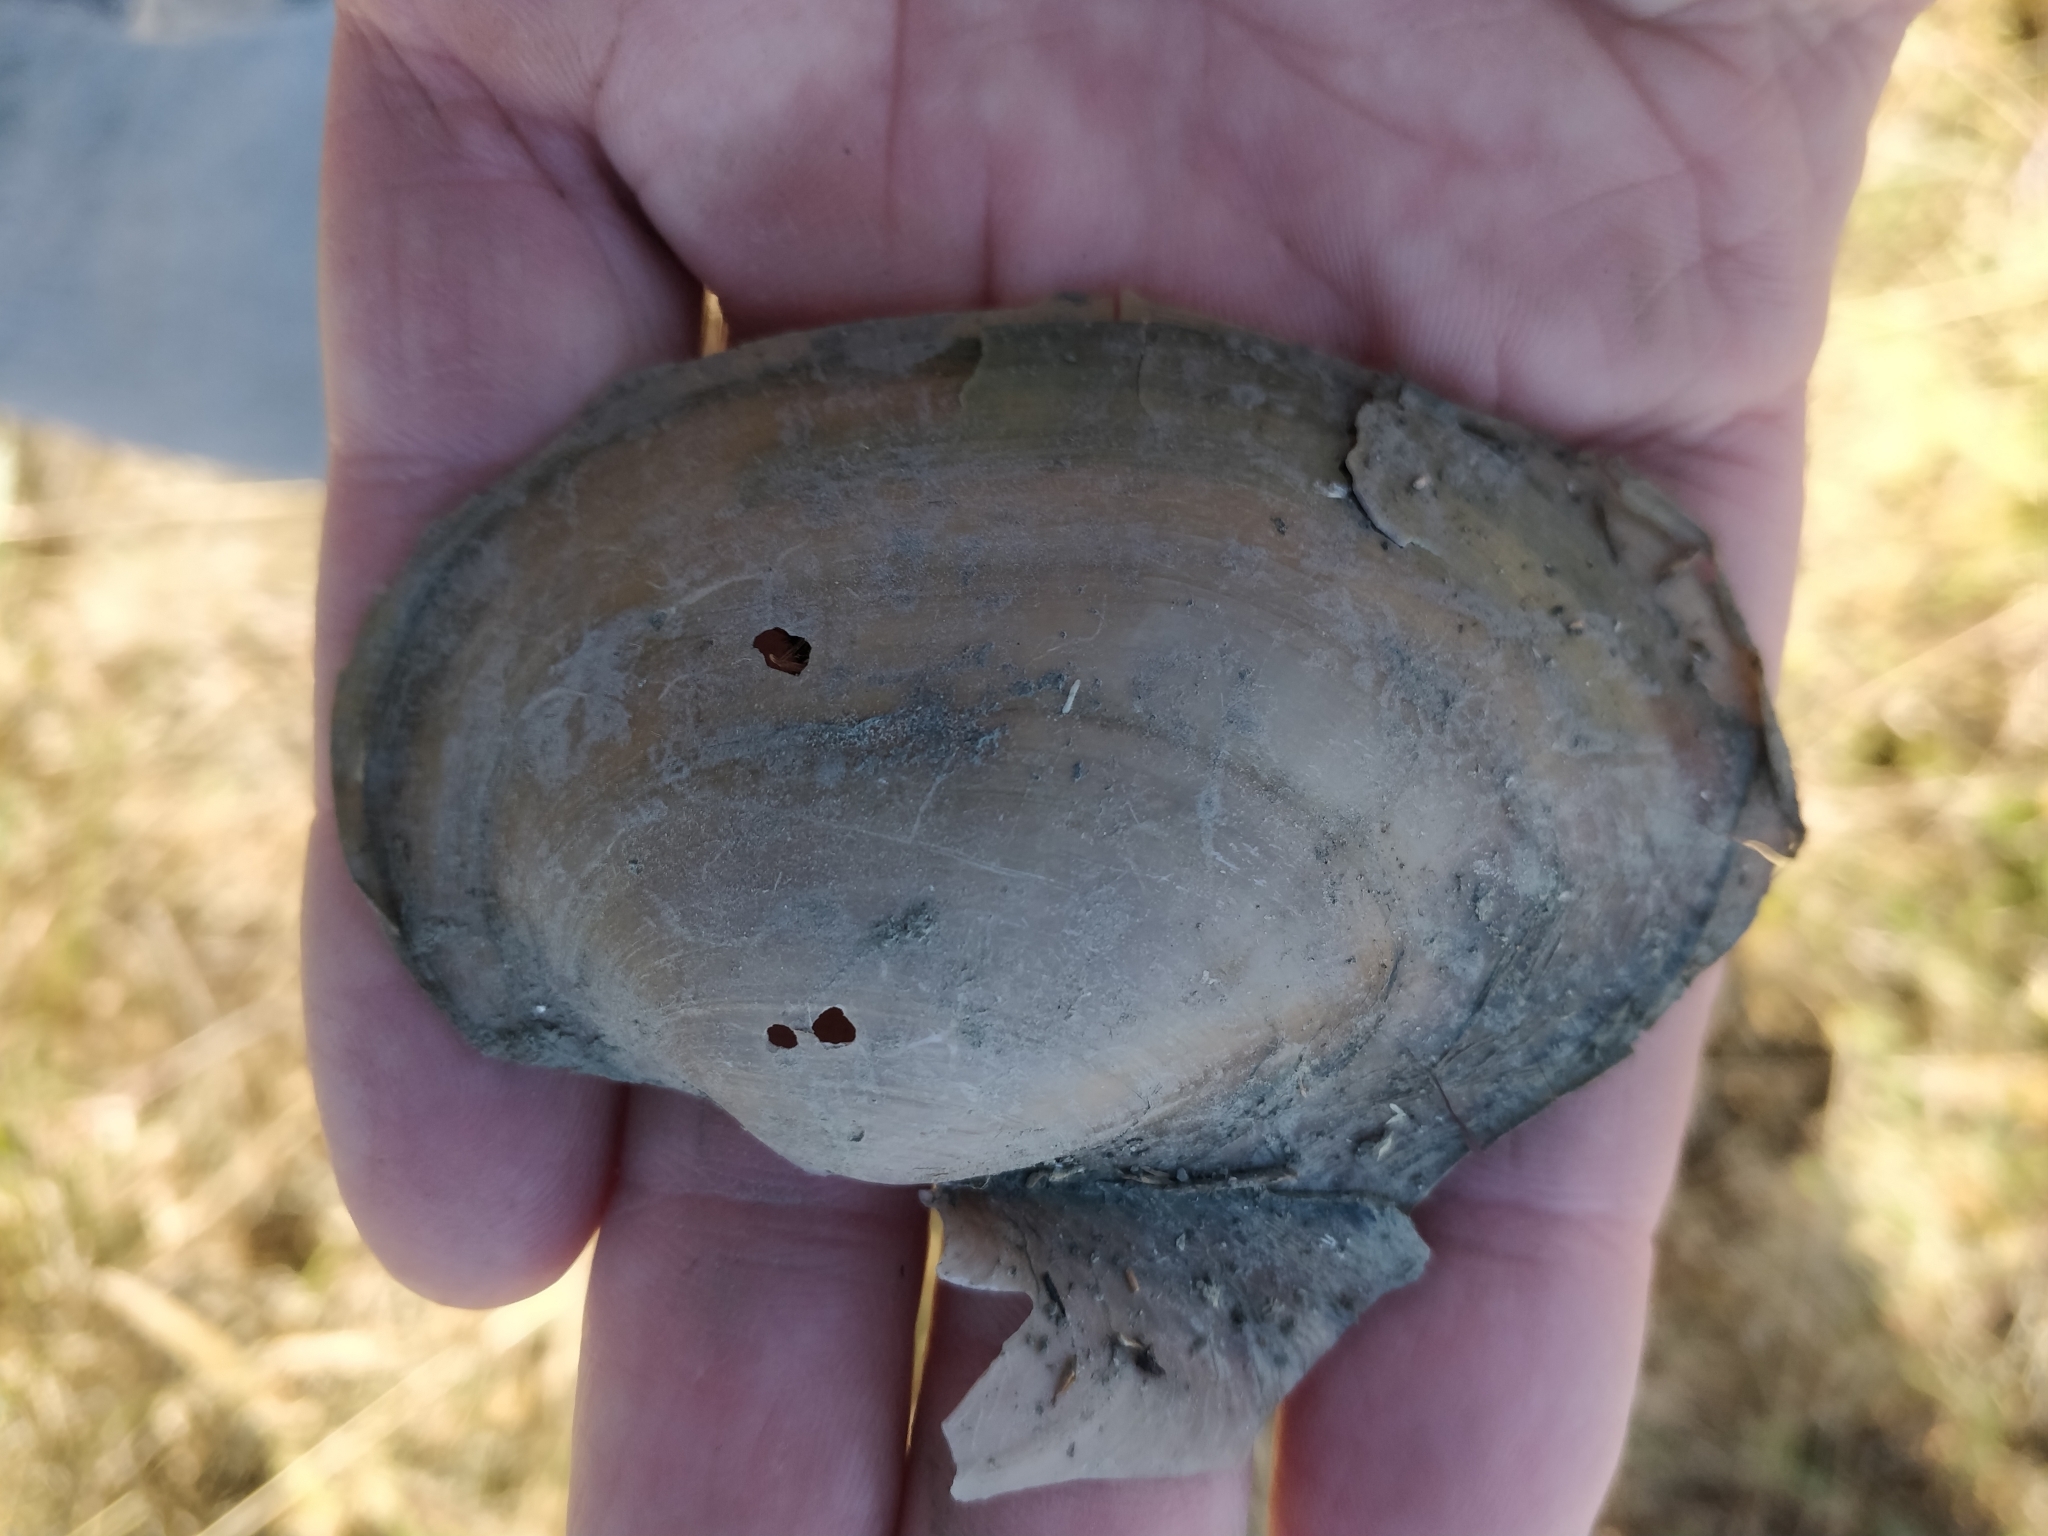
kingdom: Animalia
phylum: Mollusca
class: Bivalvia
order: Unionida
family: Unionidae
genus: Pyganodon
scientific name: Pyganodon grandis
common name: Giant floater
